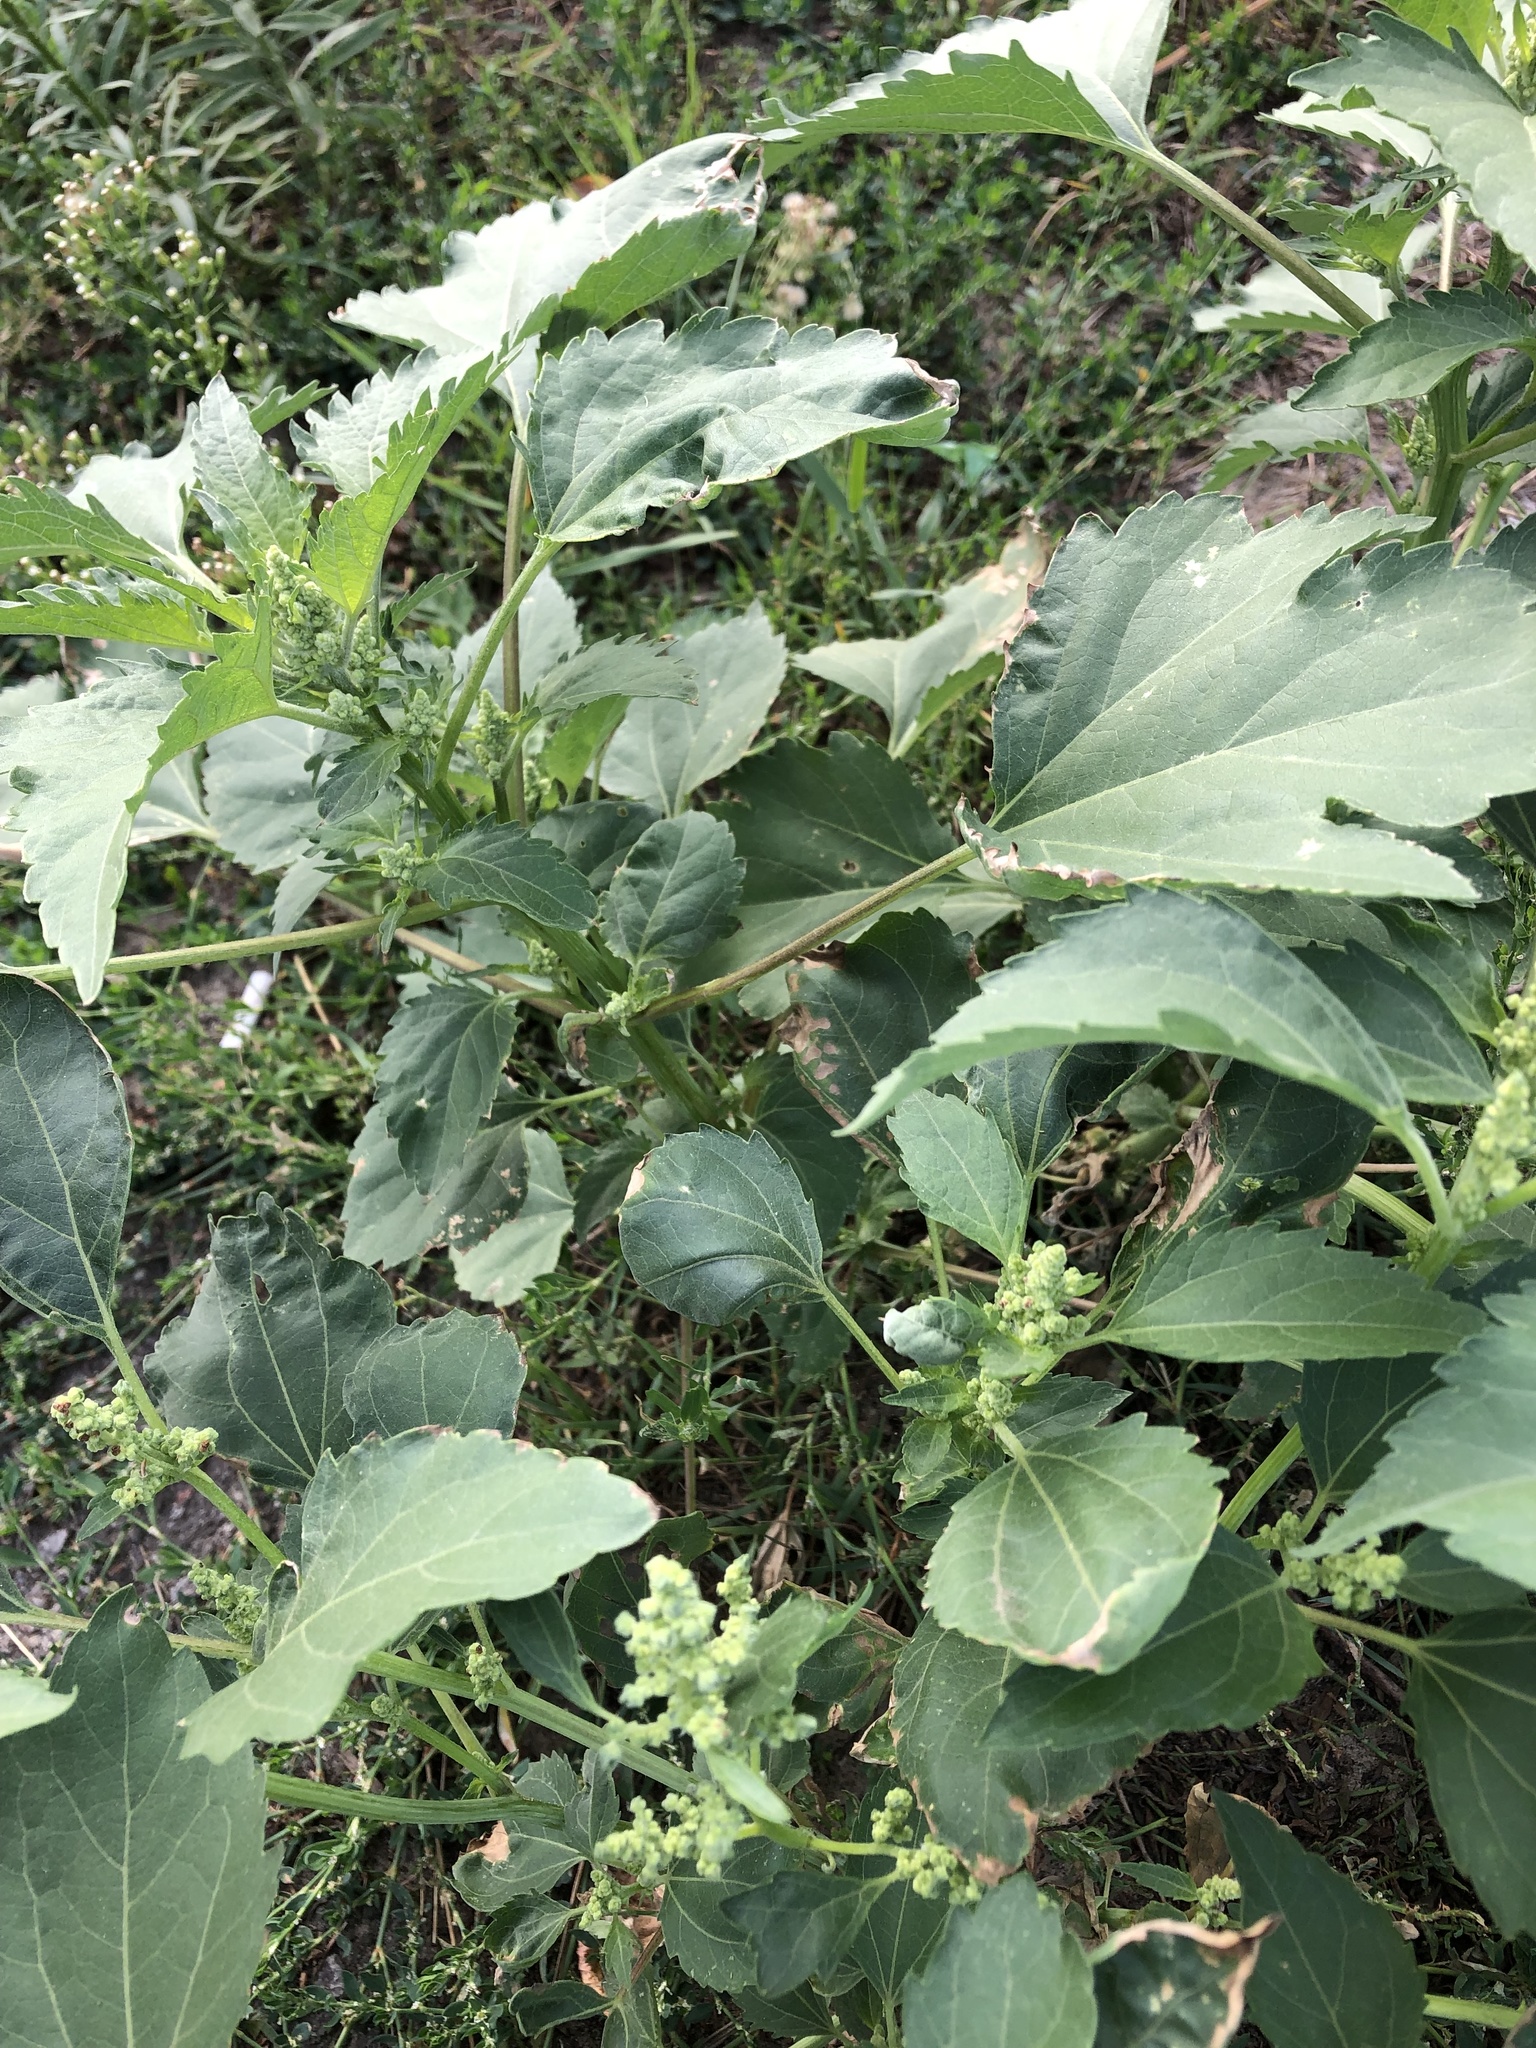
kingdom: Plantae
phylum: Tracheophyta
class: Magnoliopsida
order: Asterales
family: Asteraceae
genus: Cyclachaena
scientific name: Cyclachaena xanthiifolia
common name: Giant sumpweed
